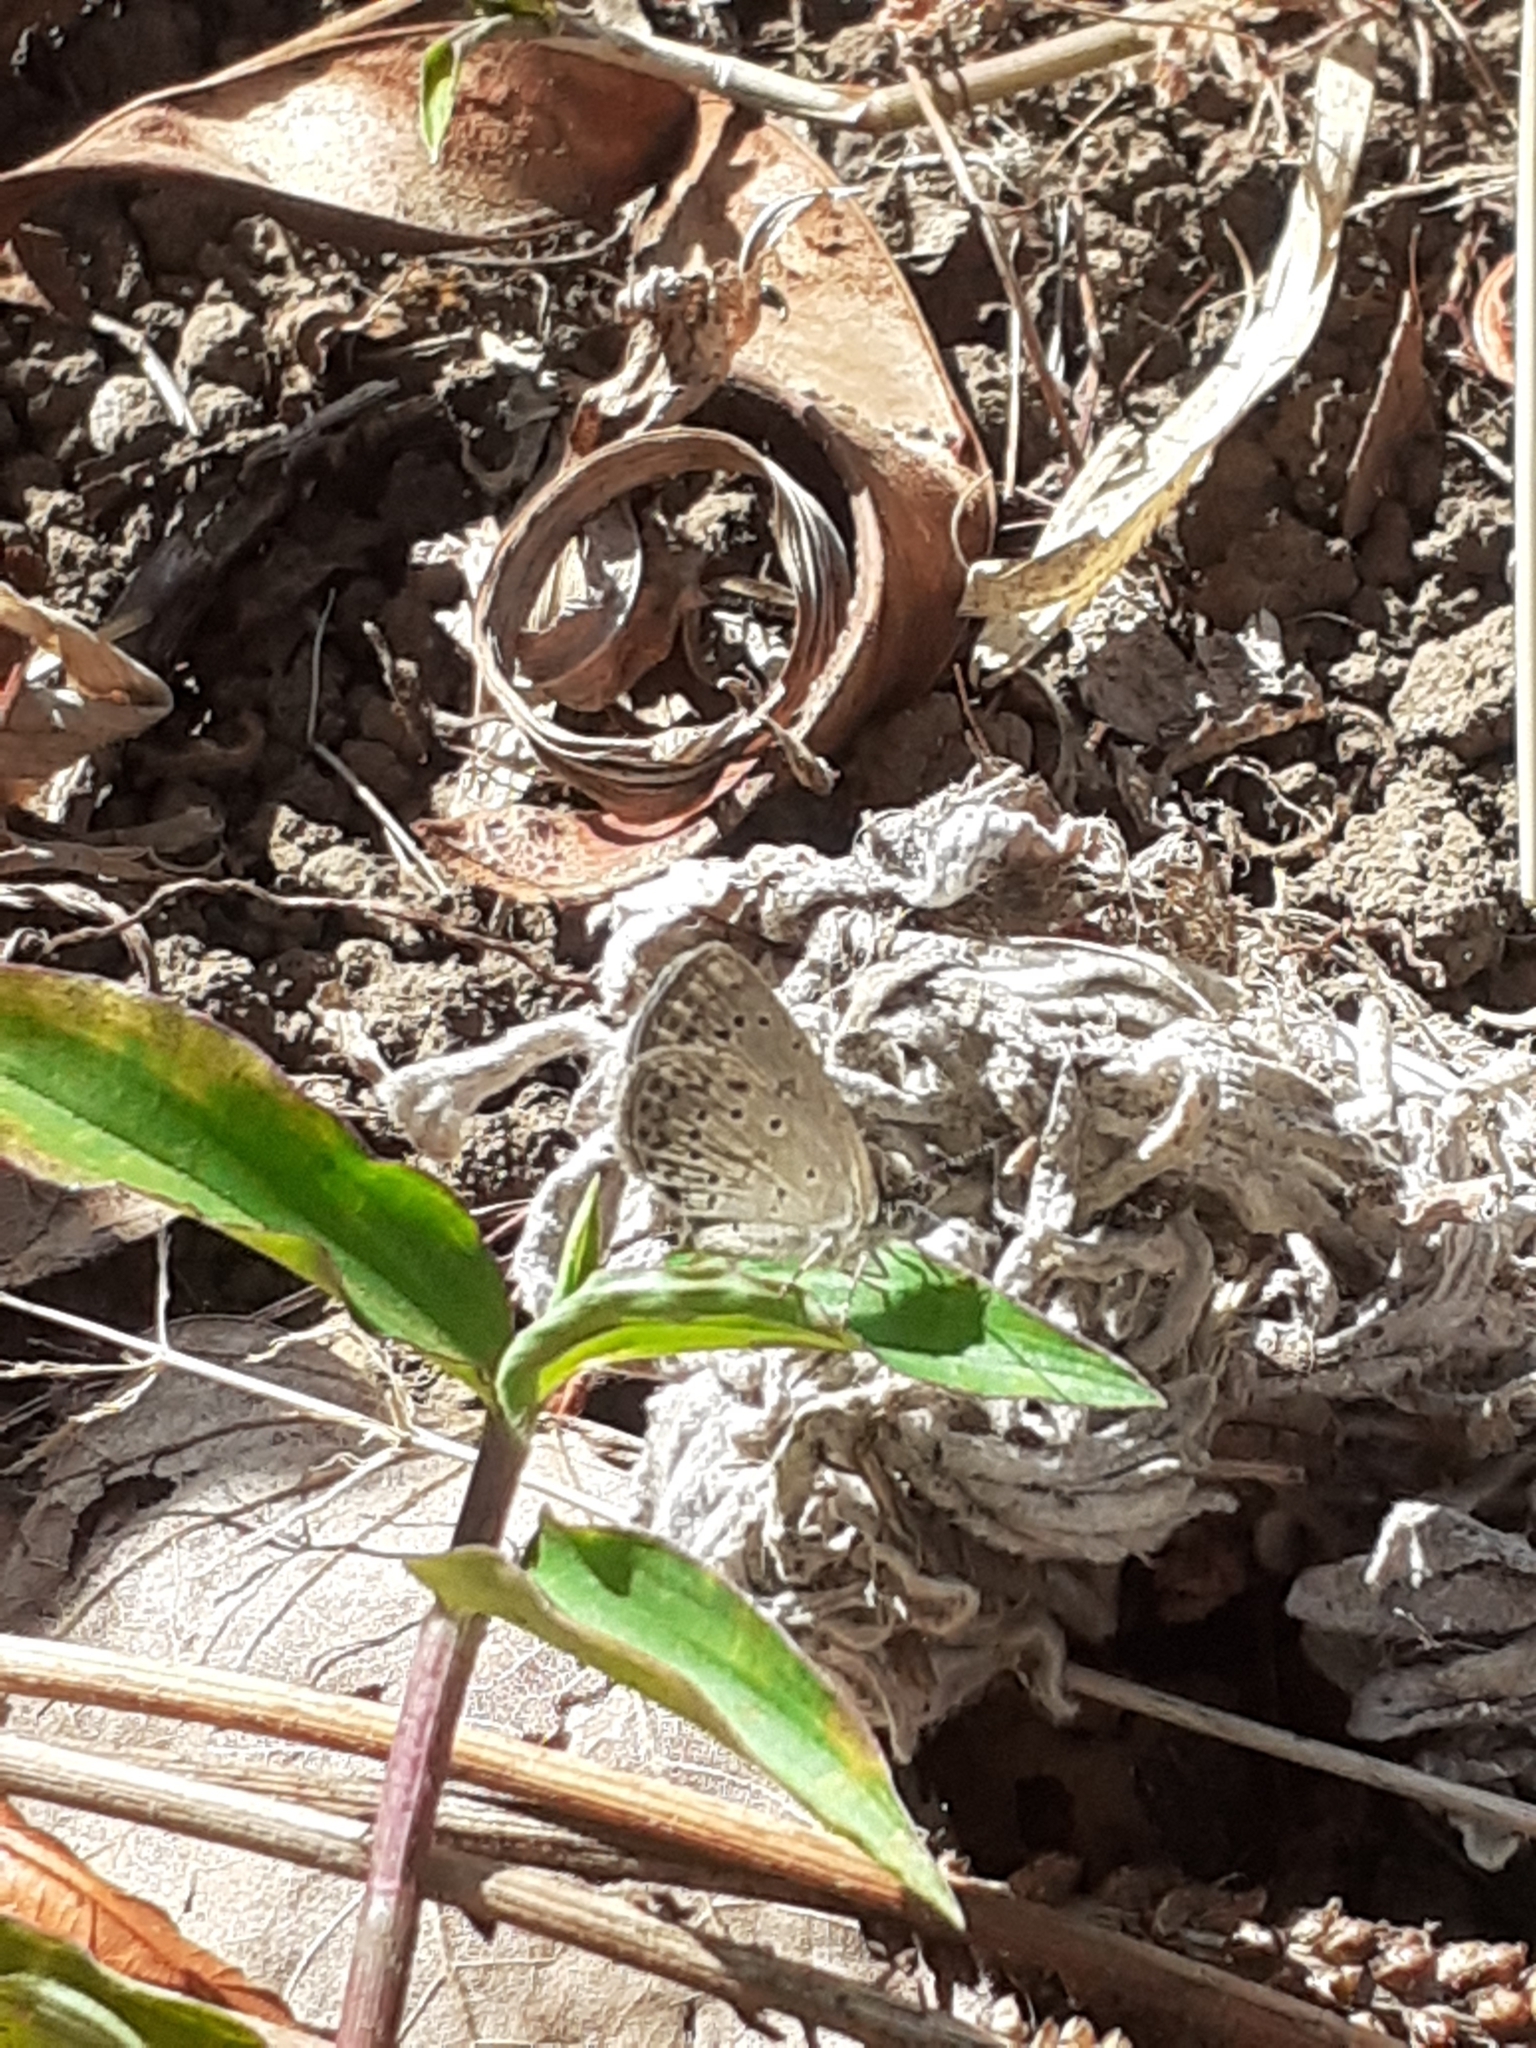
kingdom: Animalia
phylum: Arthropoda
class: Insecta
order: Lepidoptera
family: Lycaenidae
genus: Zizeeria
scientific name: Zizeeria knysna
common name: African grass blue
